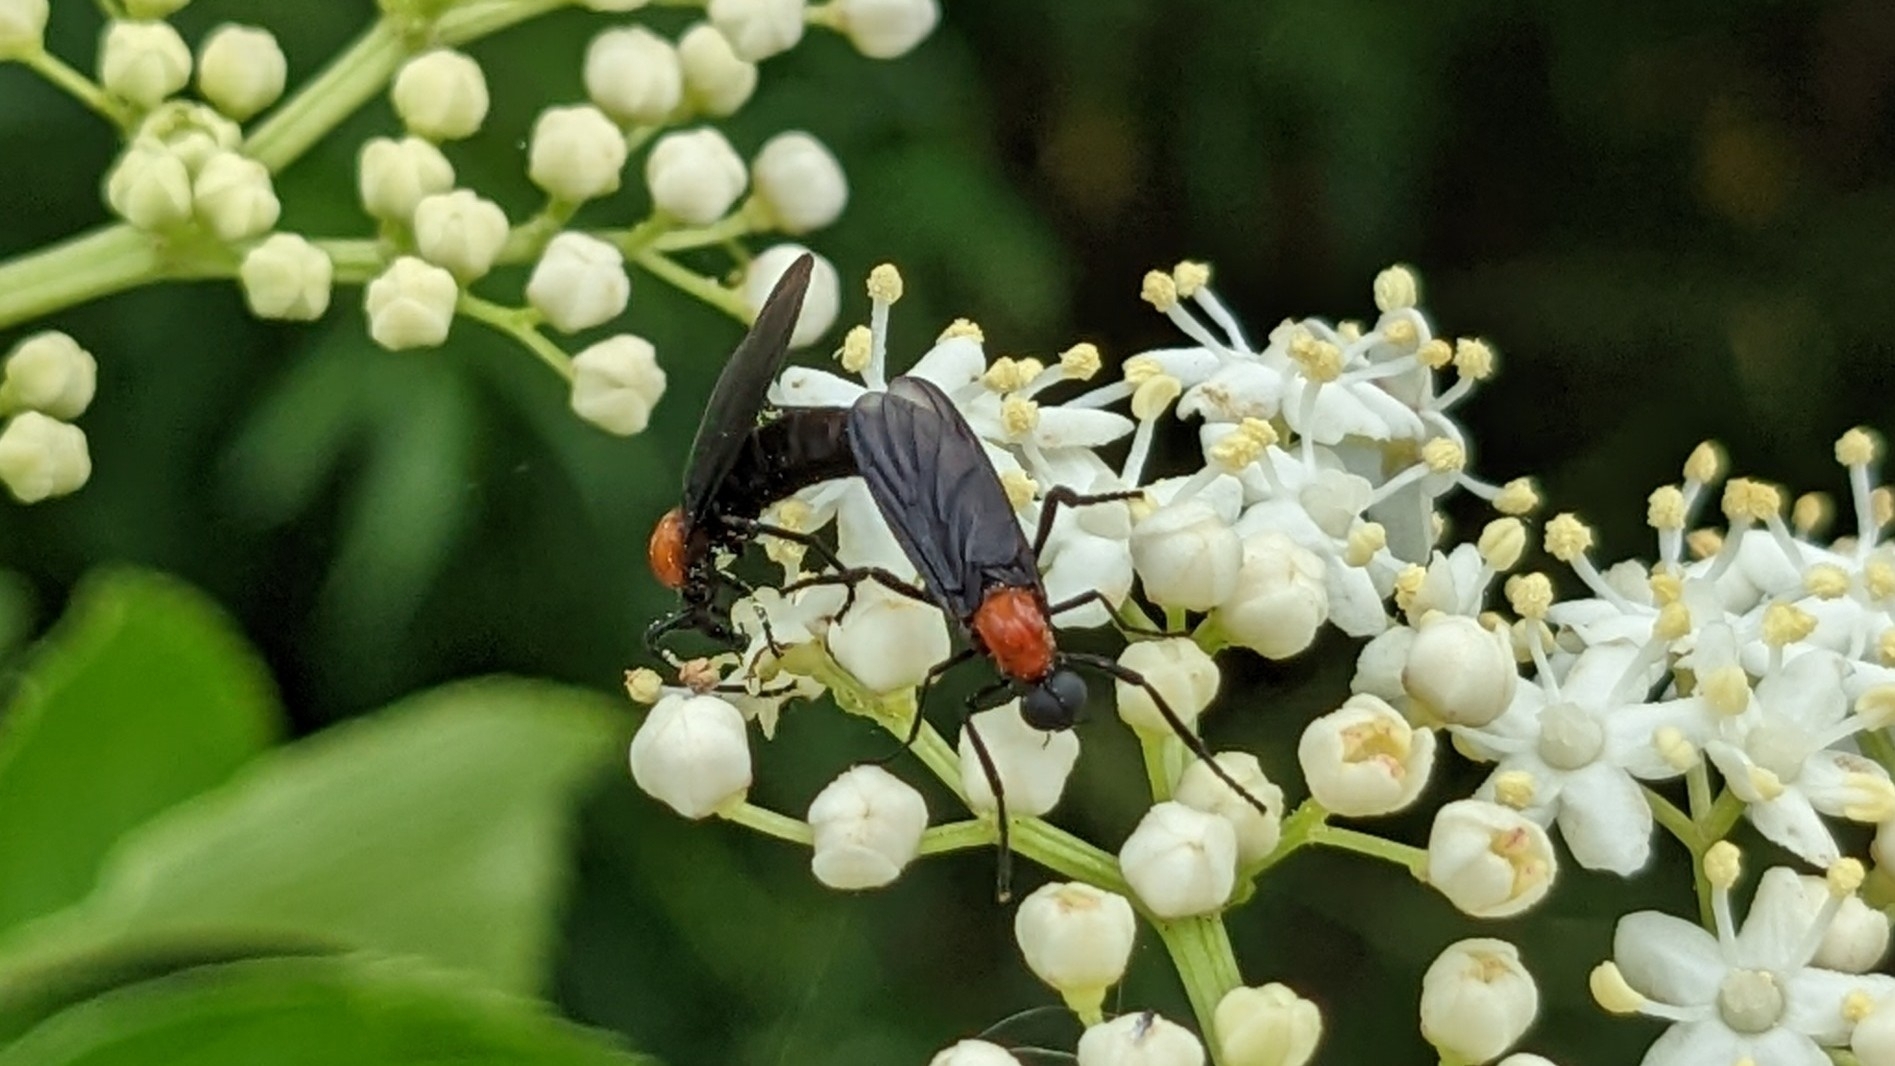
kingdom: Animalia
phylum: Arthropoda
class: Insecta
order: Diptera
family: Bibionidae
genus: Plecia
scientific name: Plecia nearctica
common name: March fly
